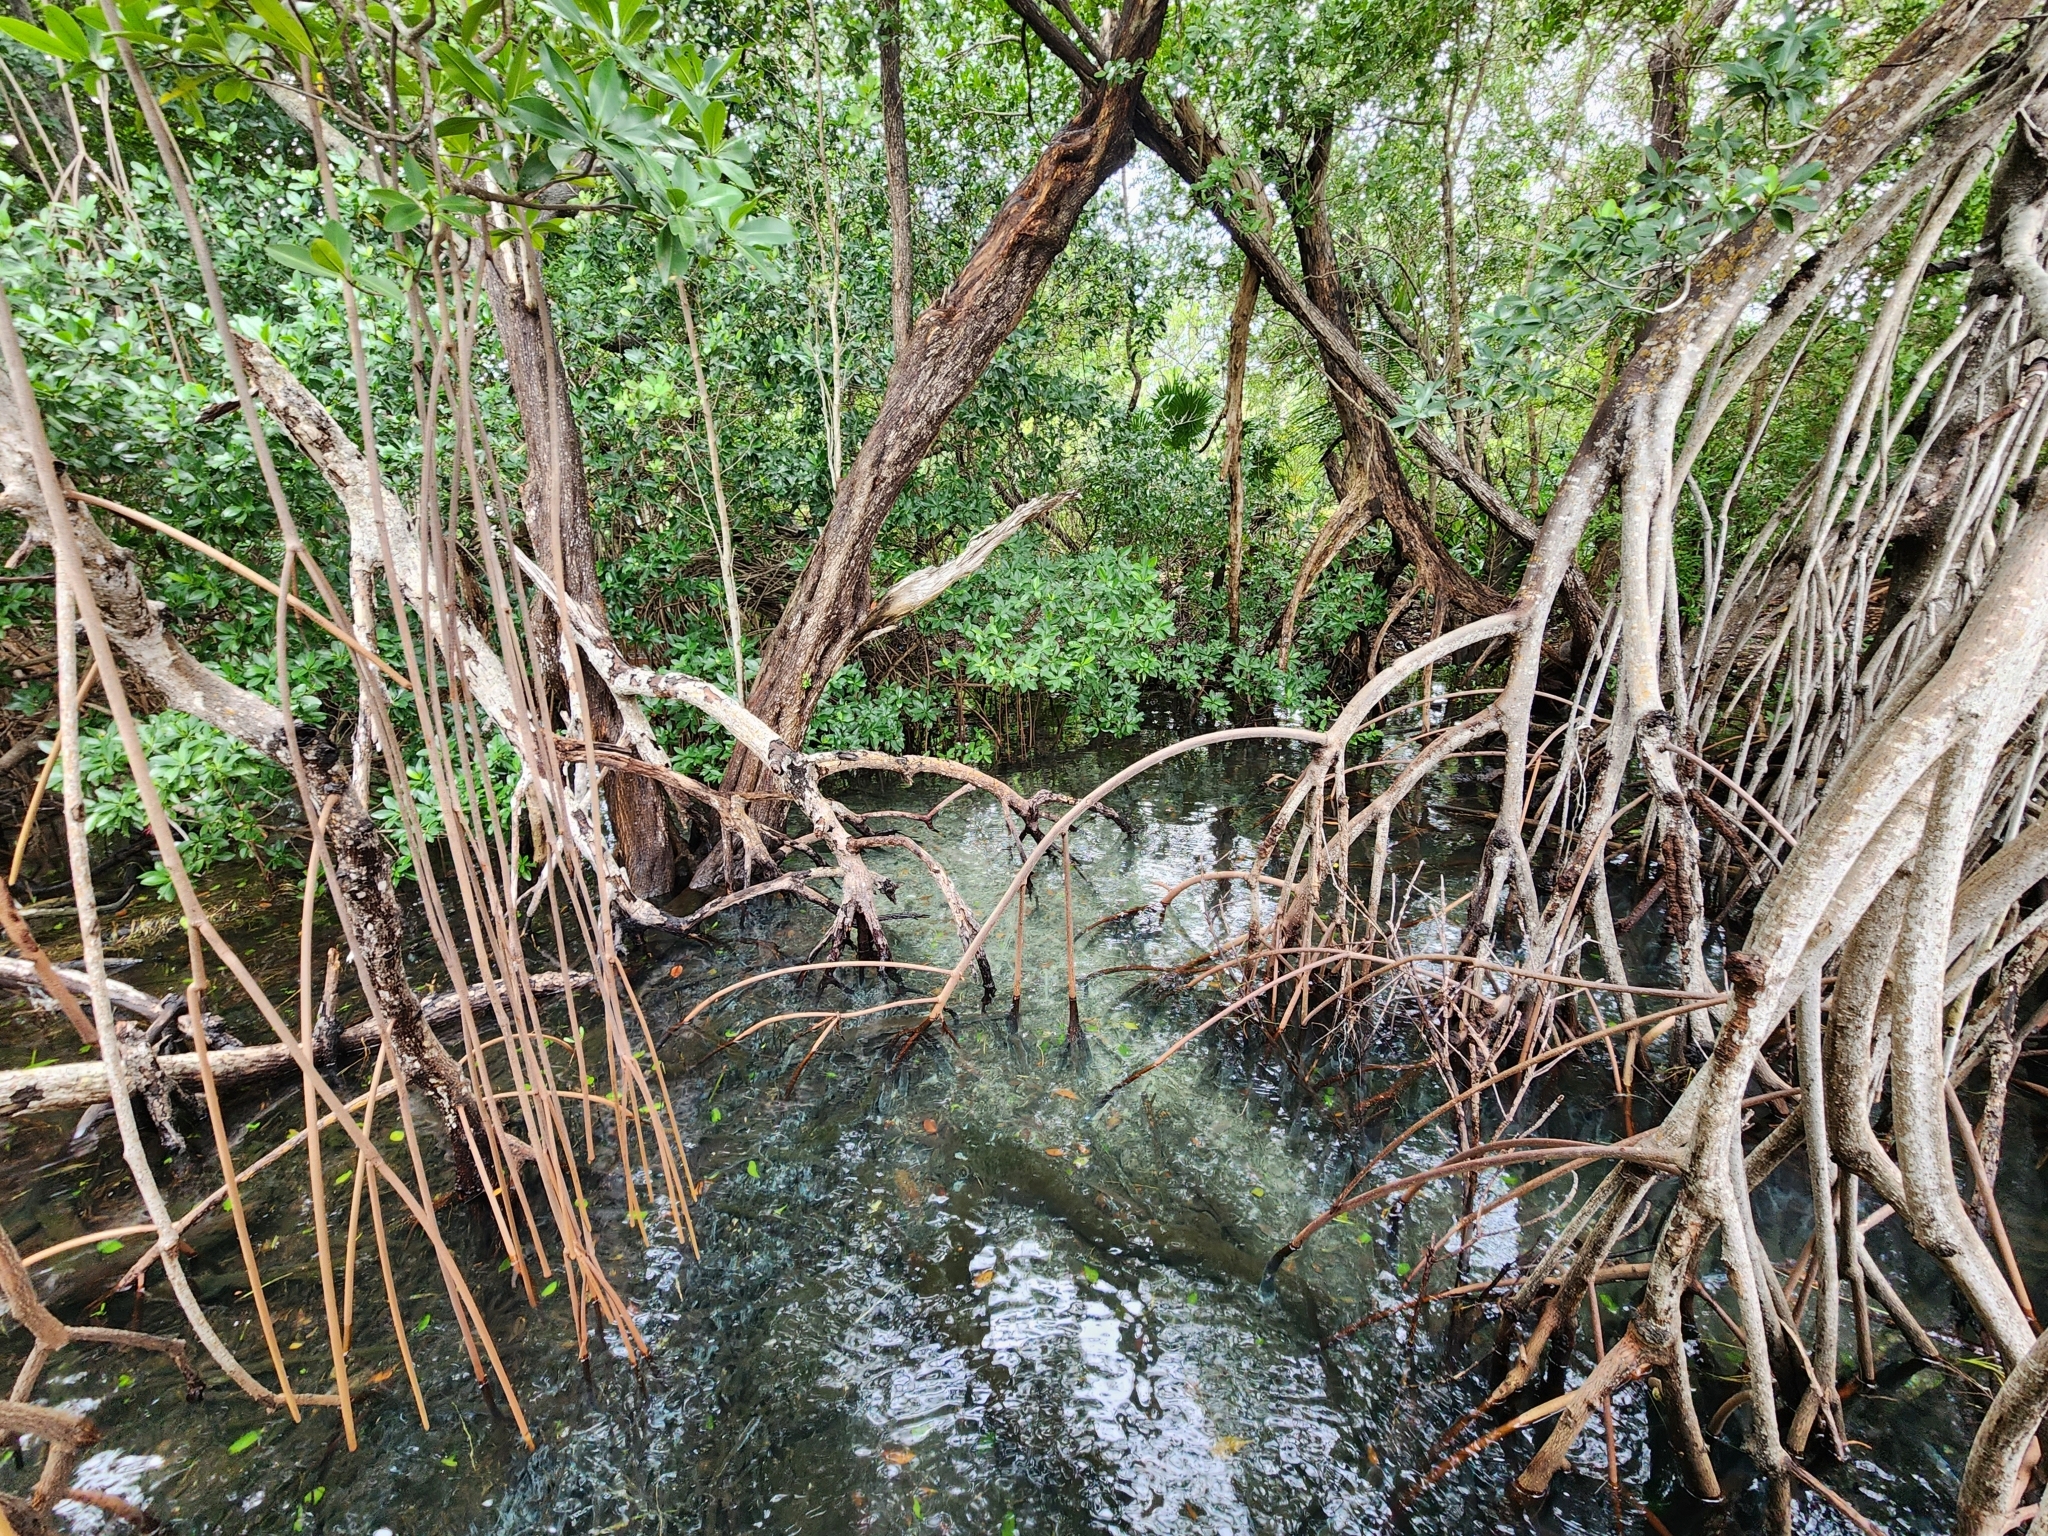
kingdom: Plantae
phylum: Tracheophyta
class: Magnoliopsida
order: Malpighiales
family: Rhizophoraceae
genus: Rhizophora
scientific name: Rhizophora mangle
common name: Red mangrove
